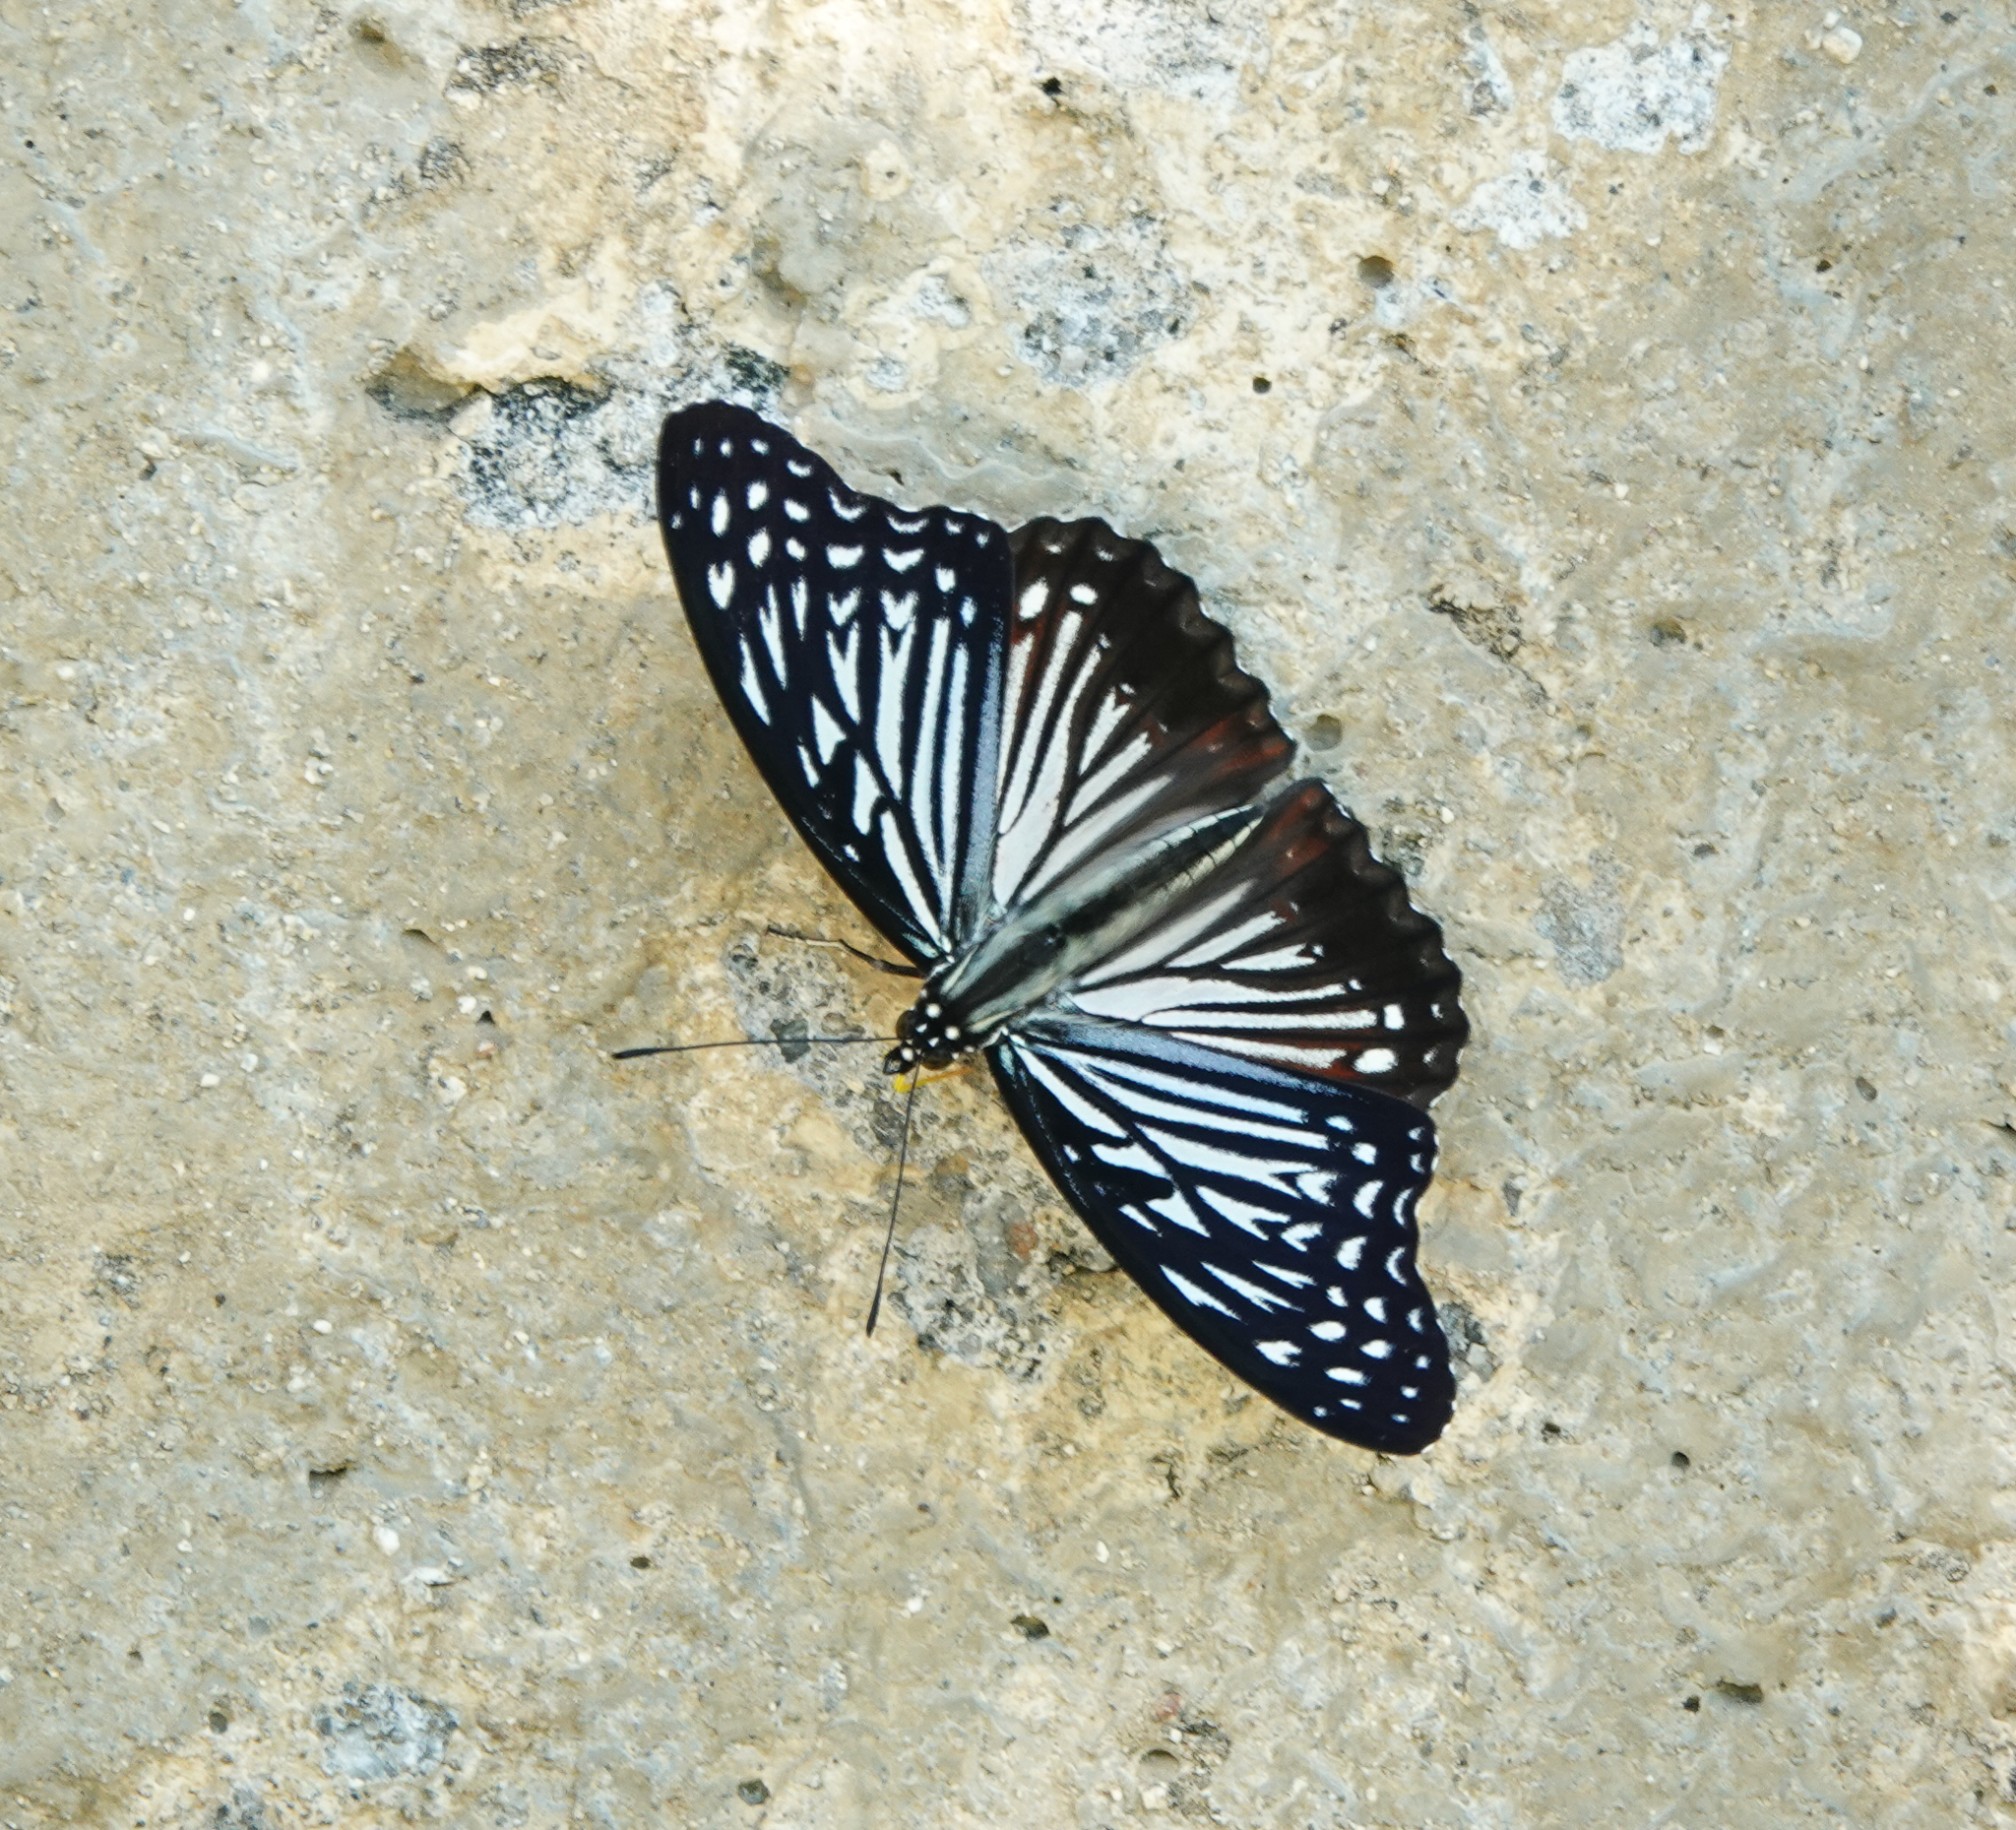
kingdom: Animalia
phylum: Arthropoda
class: Insecta
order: Lepidoptera
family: Nymphalidae
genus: Hestinalis
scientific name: Hestinalis nama
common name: Circe
